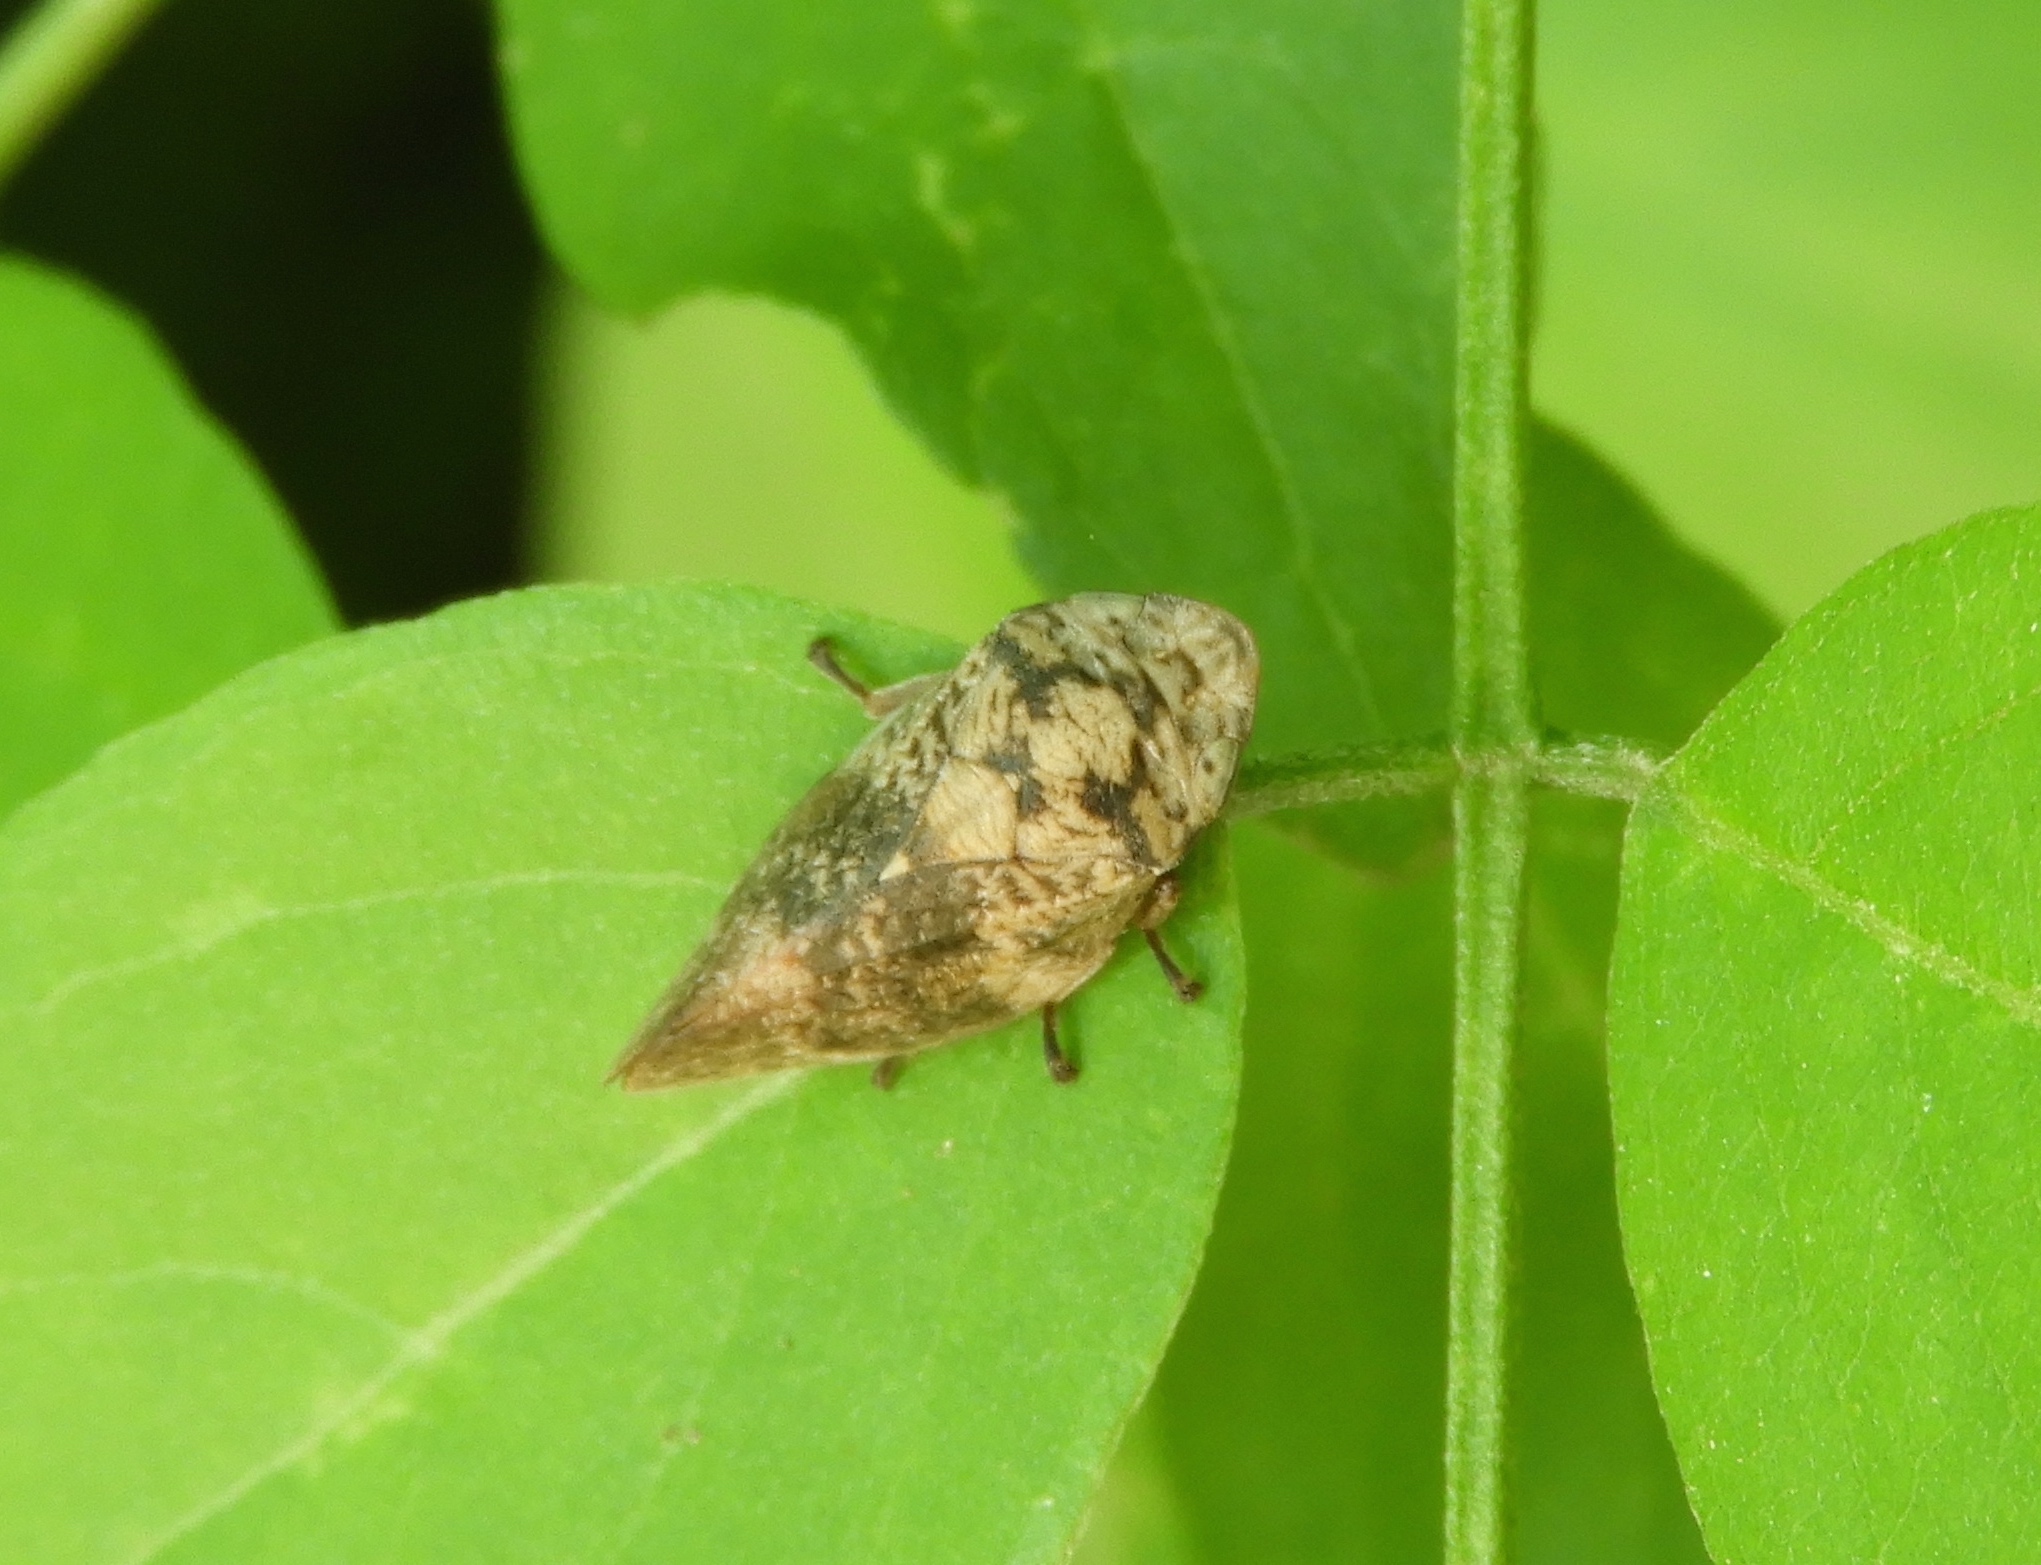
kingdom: Animalia
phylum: Arthropoda
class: Insecta
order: Hemiptera
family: Aphrophoridae
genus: Cephisus
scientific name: Cephisus
